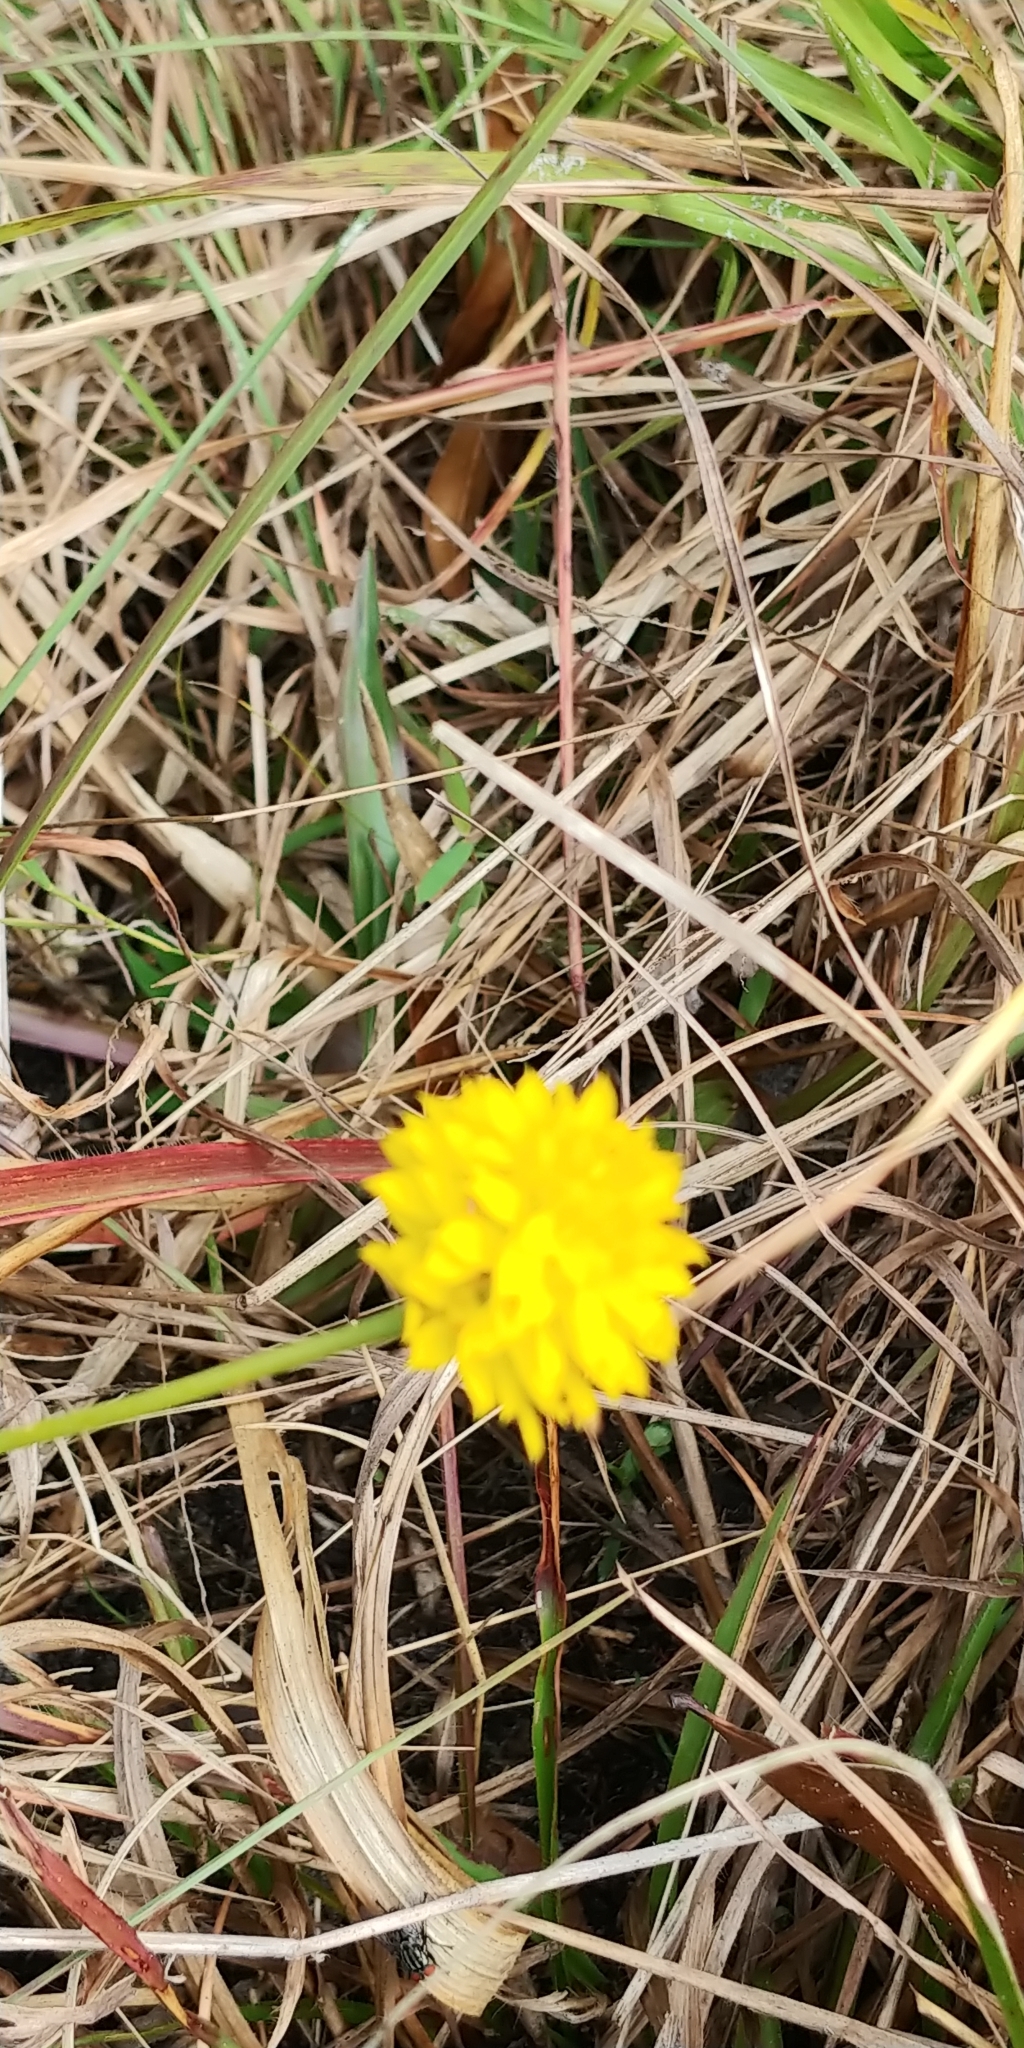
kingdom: Plantae
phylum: Tracheophyta
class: Magnoliopsida
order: Fabales
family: Polygalaceae
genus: Polygala
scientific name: Polygala rugelii
